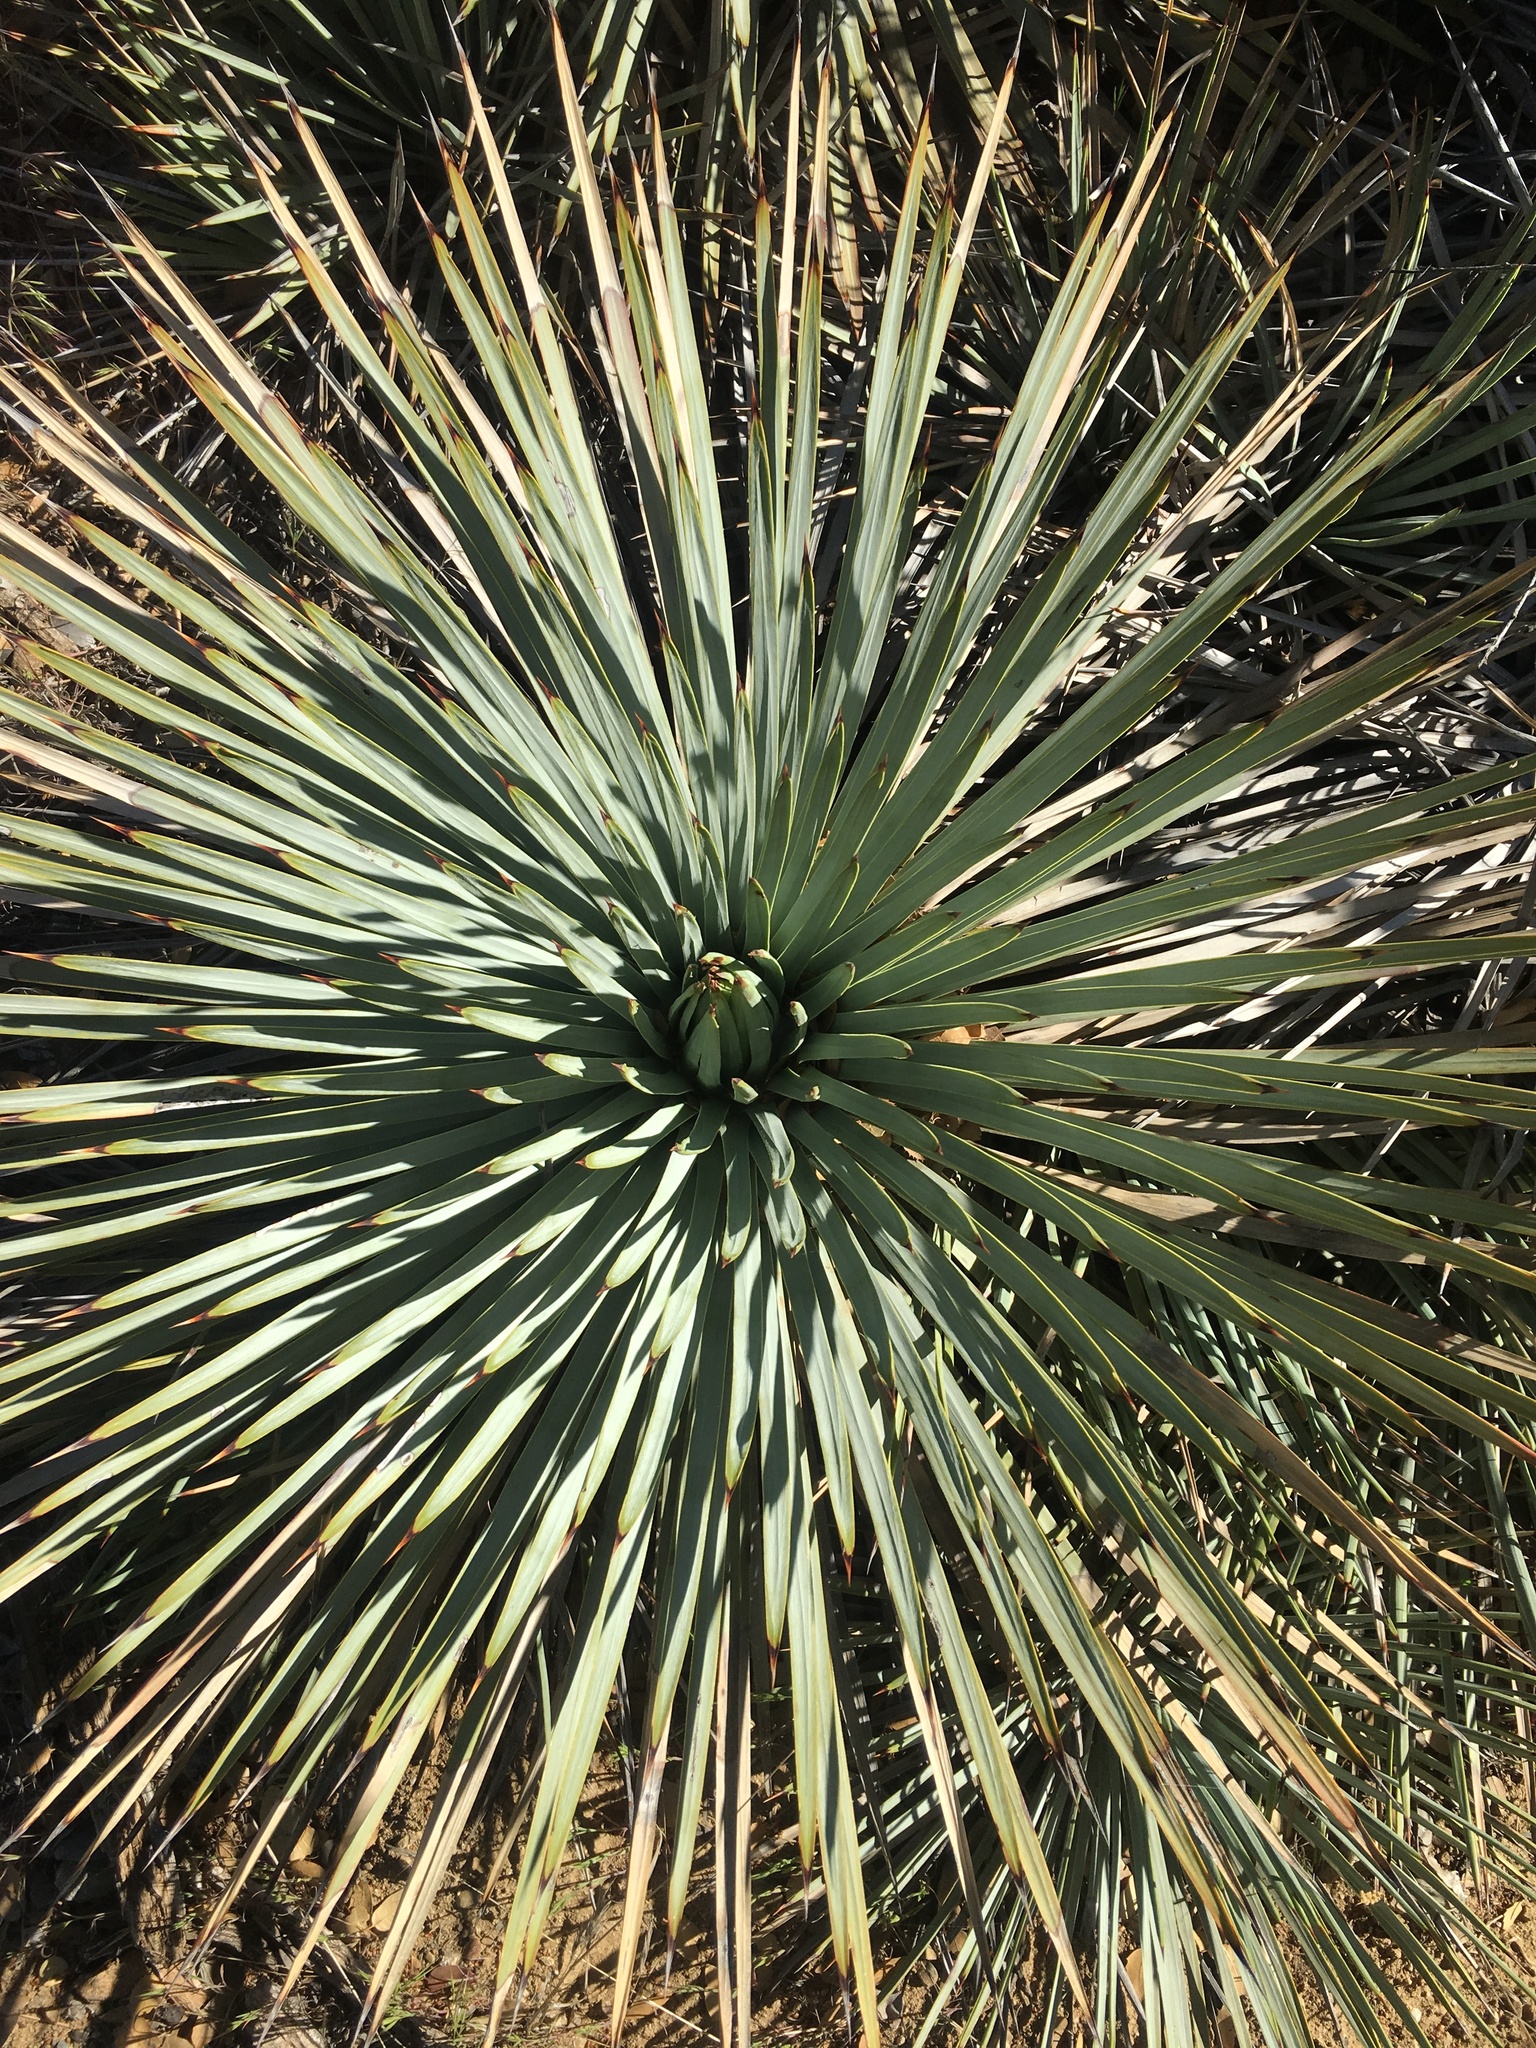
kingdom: Plantae
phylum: Tracheophyta
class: Liliopsida
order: Asparagales
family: Asparagaceae
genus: Hesperoyucca
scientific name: Hesperoyucca whipplei
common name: Our lord's-candle
